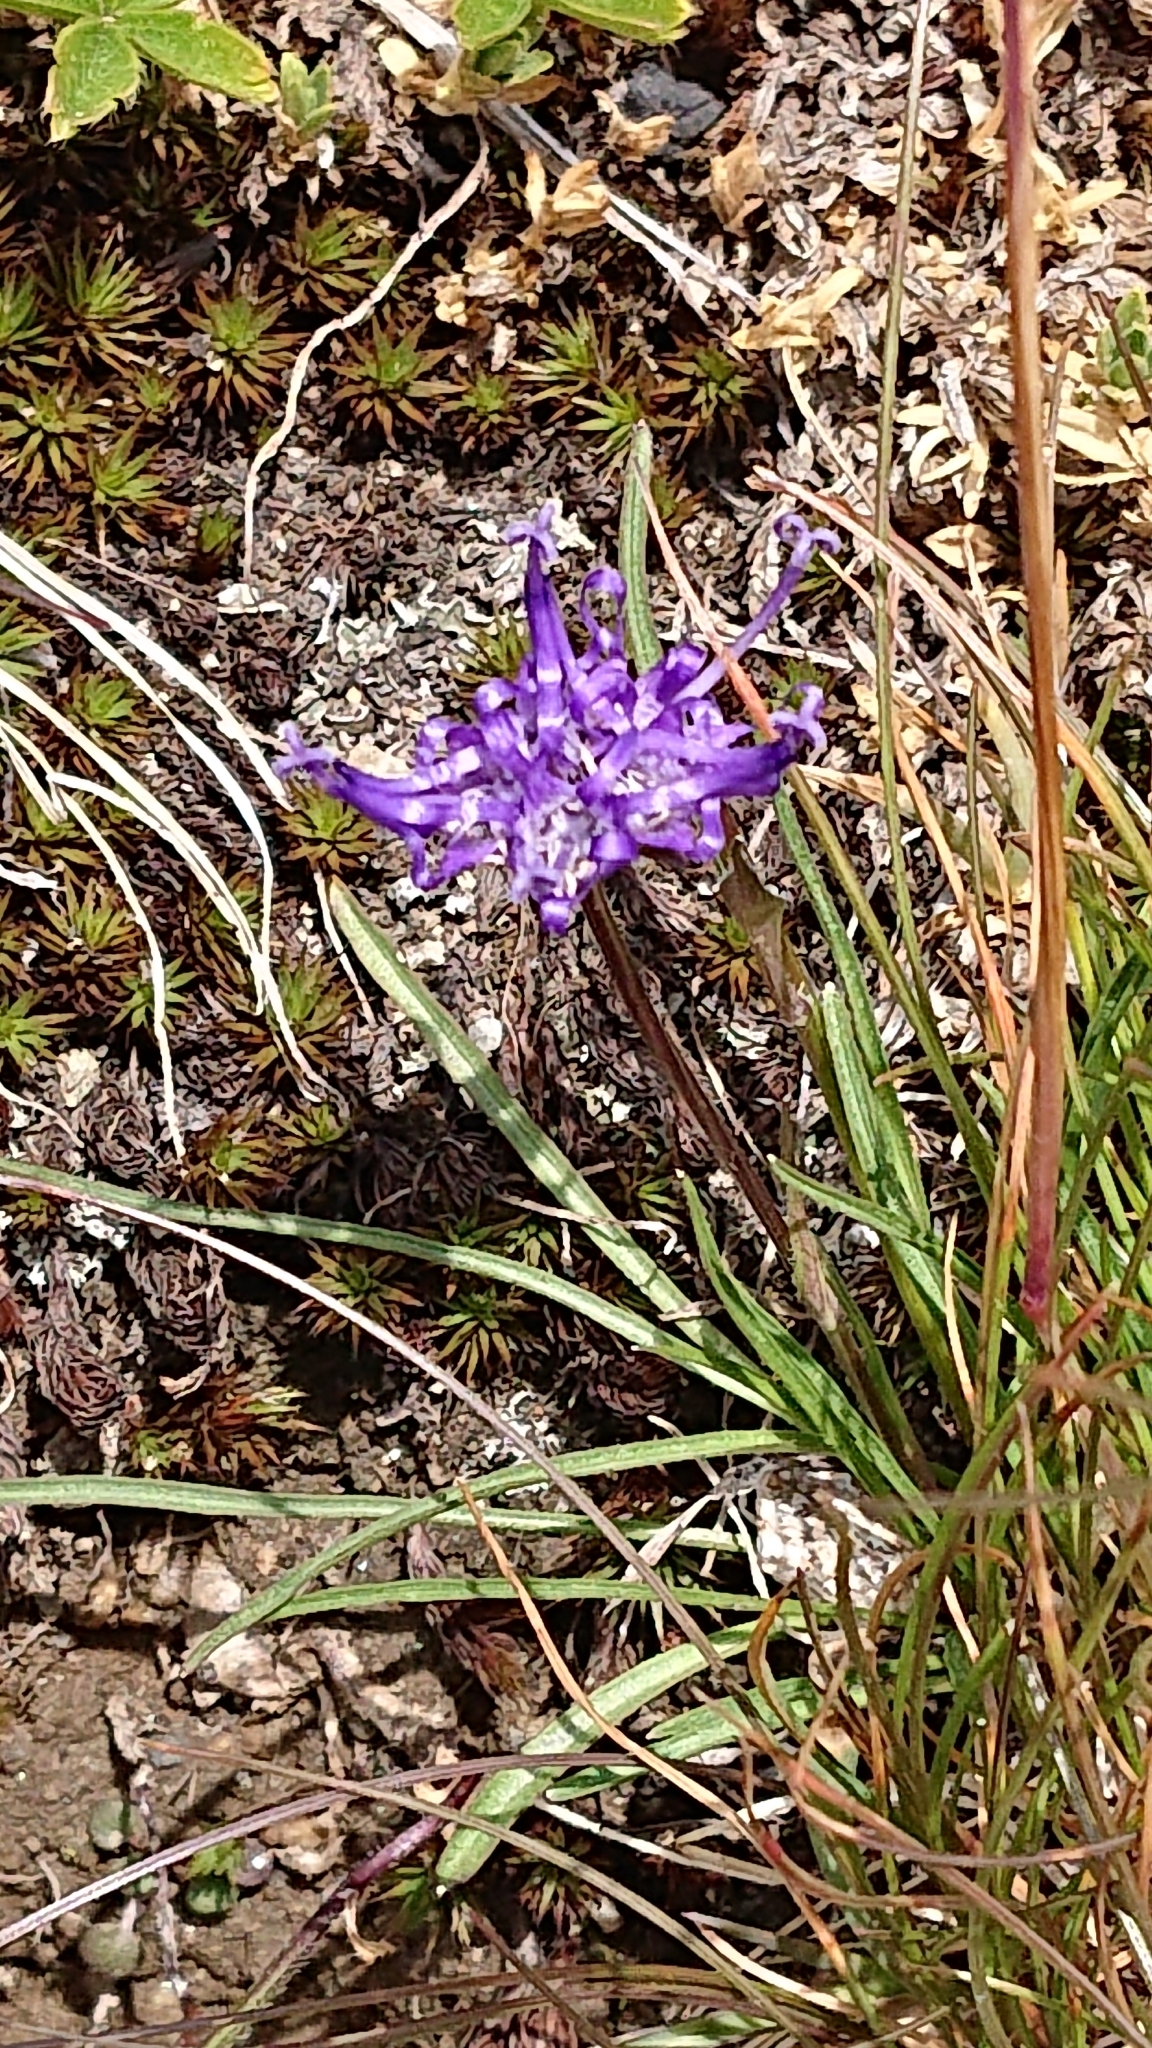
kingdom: Plantae
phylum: Tracheophyta
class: Magnoliopsida
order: Asterales
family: Campanulaceae
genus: Phyteuma
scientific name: Phyteuma hemisphaericum
